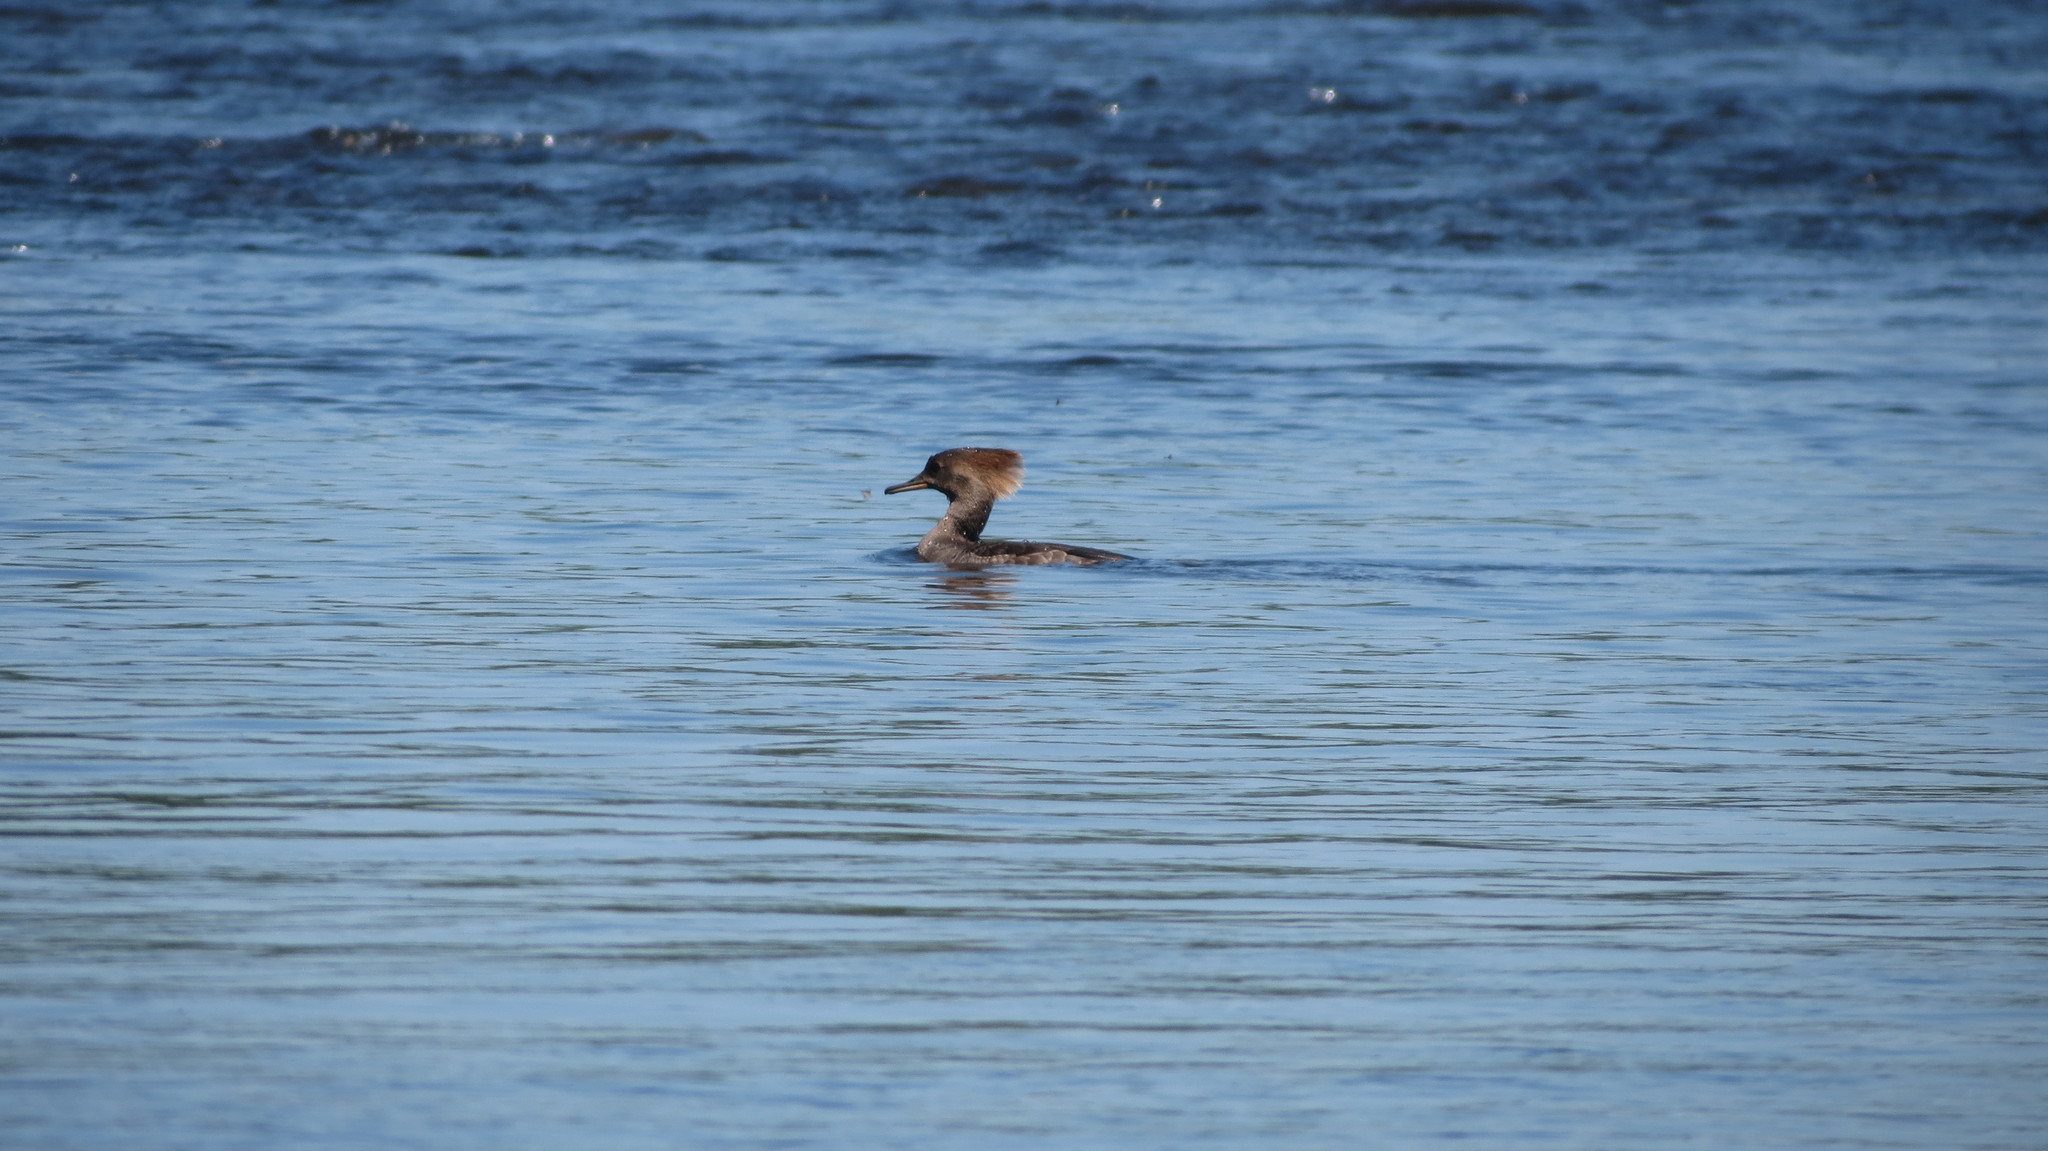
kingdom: Animalia
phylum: Chordata
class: Aves
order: Anseriformes
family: Anatidae
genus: Lophodytes
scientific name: Lophodytes cucullatus
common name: Hooded merganser
